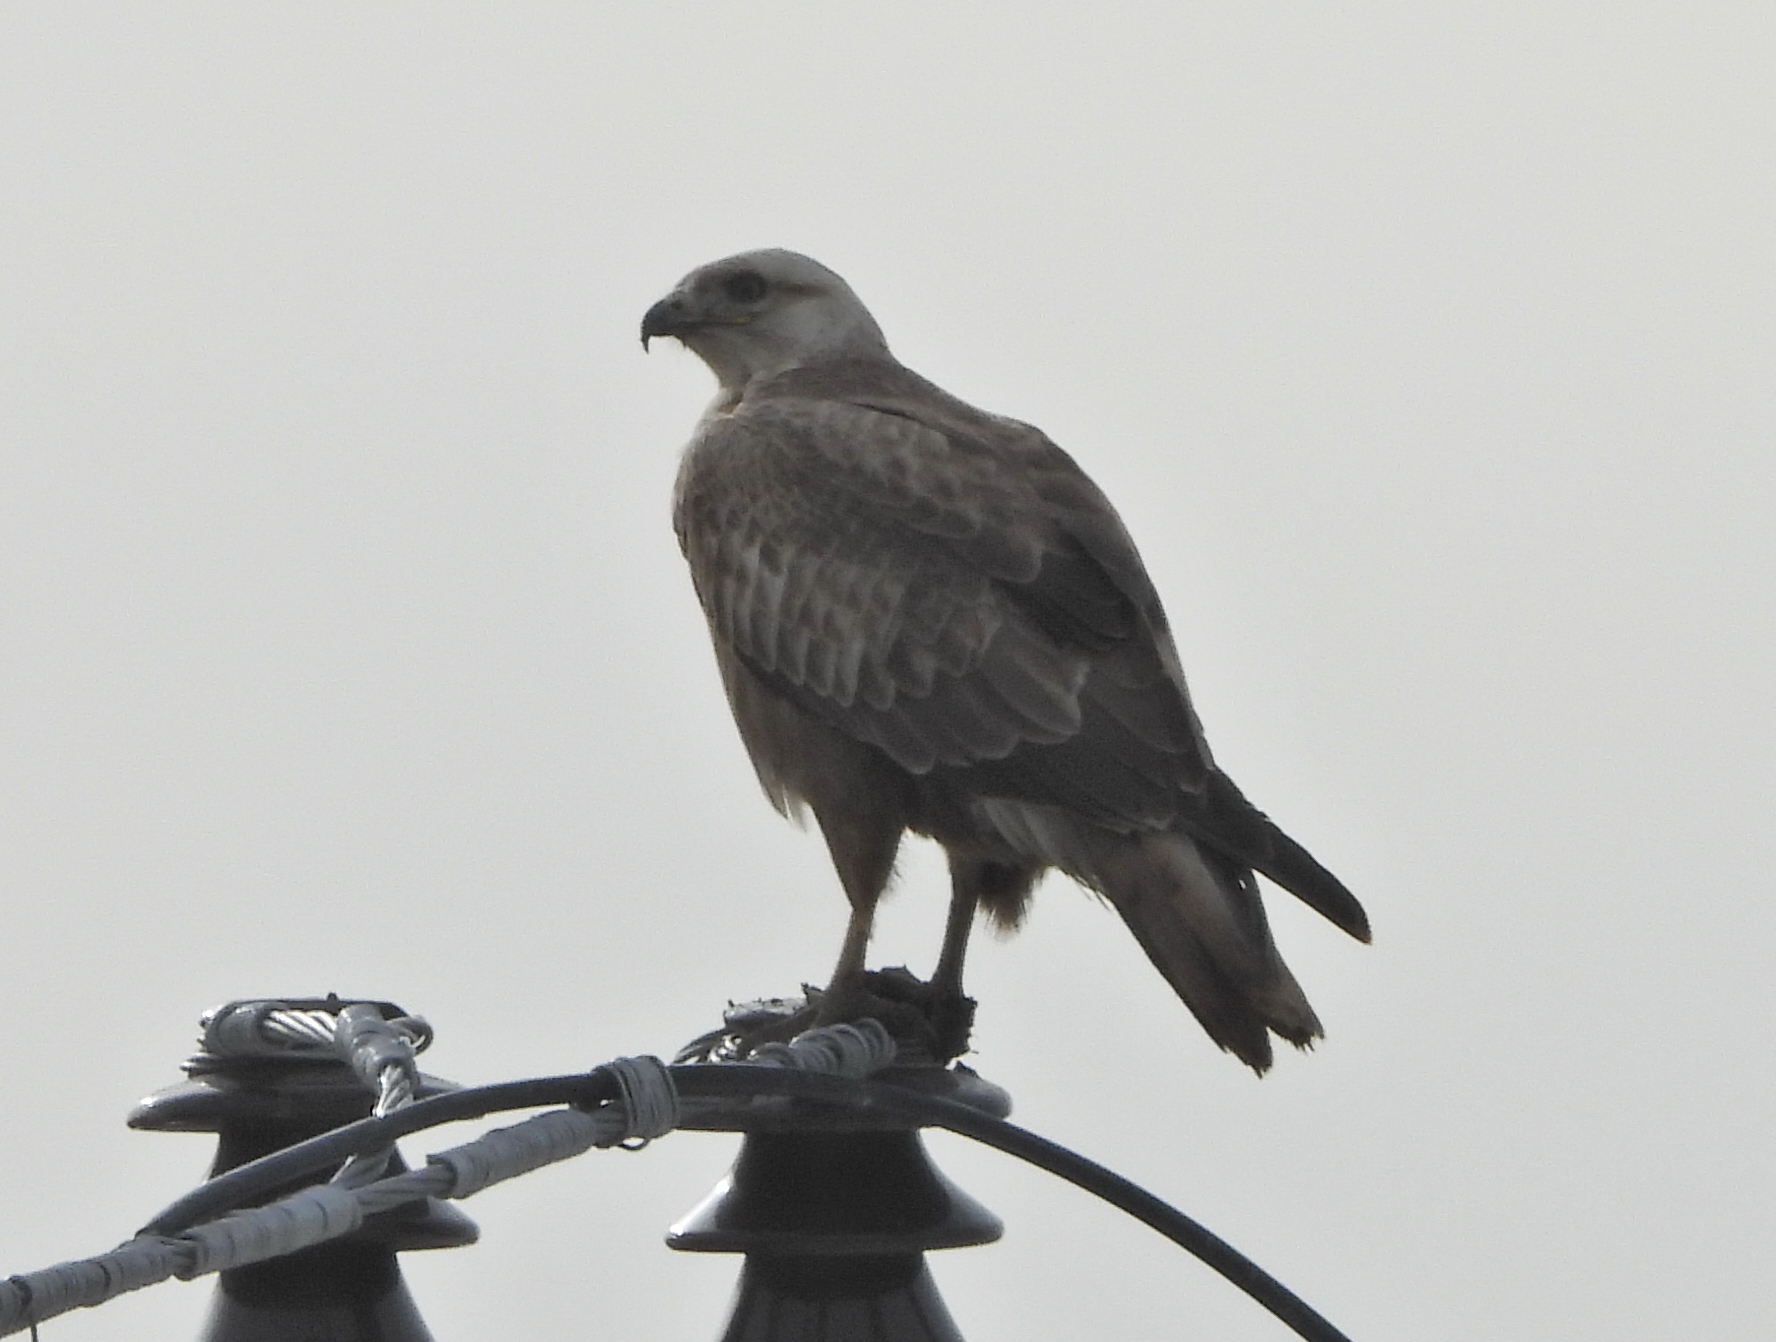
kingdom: Animalia
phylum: Chordata
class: Aves
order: Accipitriformes
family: Accipitridae
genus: Buteo
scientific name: Buteo rufinus
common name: Long-legged buzzard
